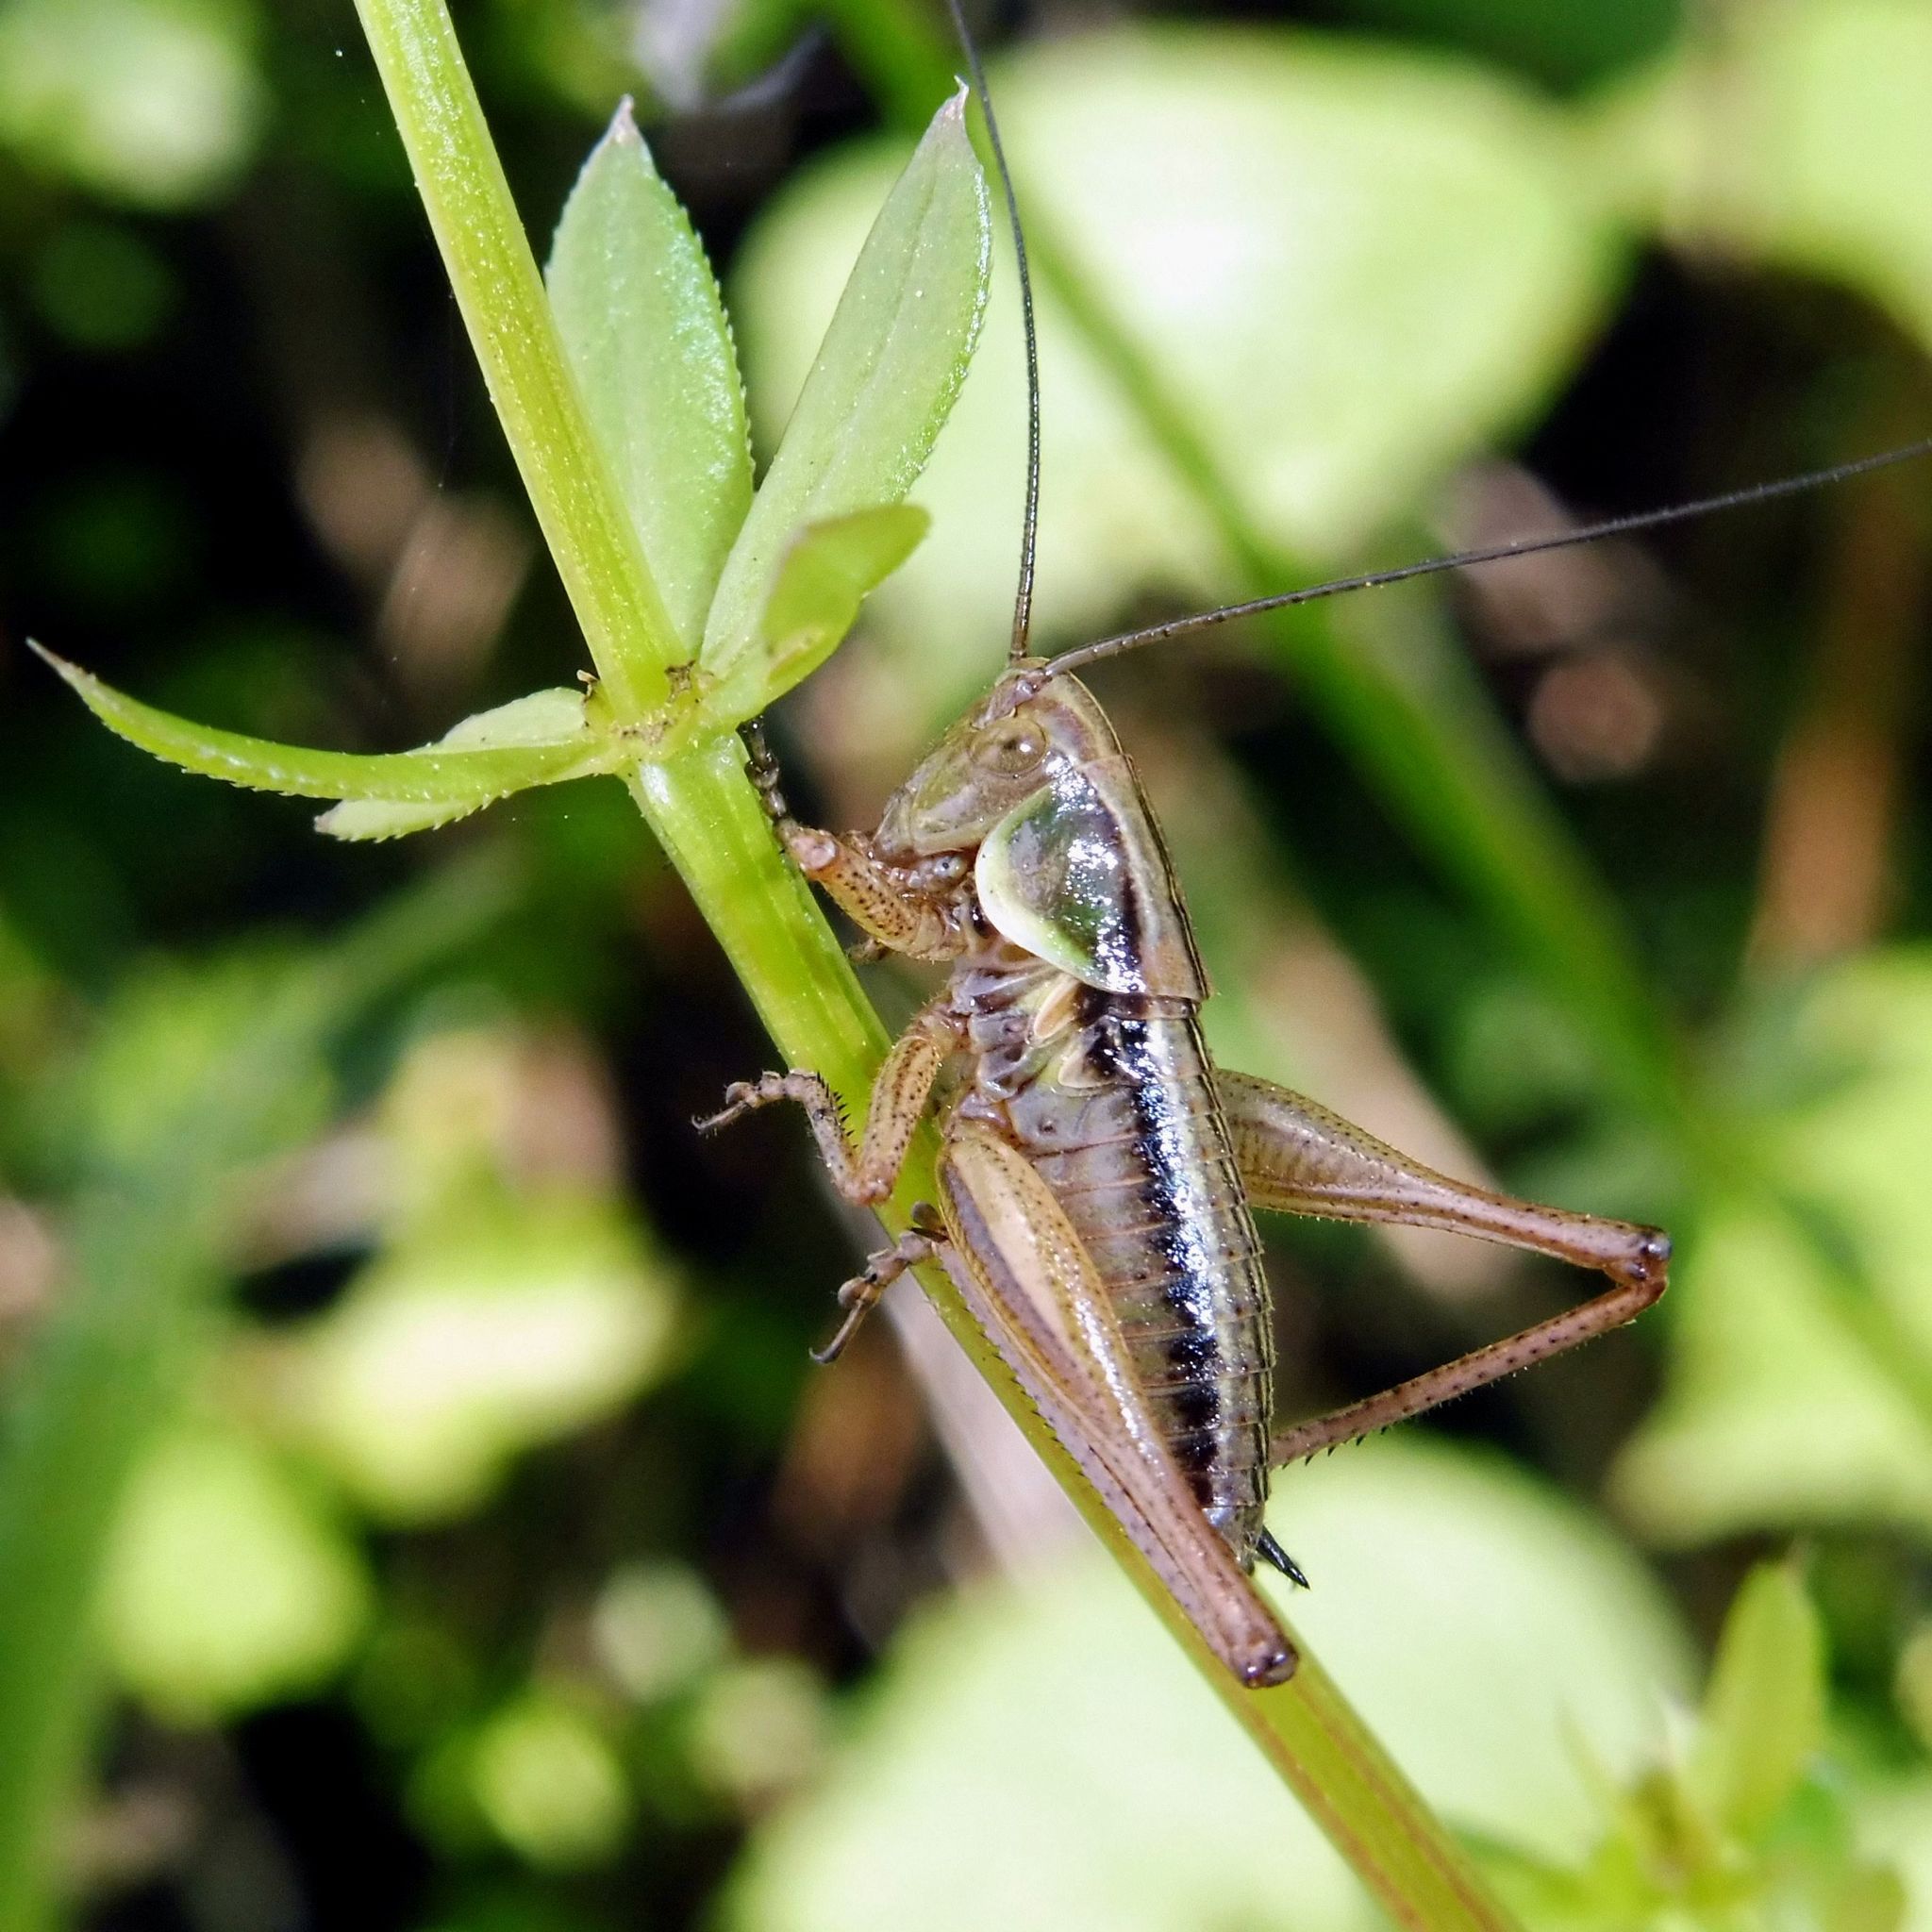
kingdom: Animalia
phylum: Arthropoda
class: Insecta
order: Orthoptera
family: Tettigoniidae
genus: Roeseliana
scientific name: Roeseliana roeselii
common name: Roesel's bush cricket
